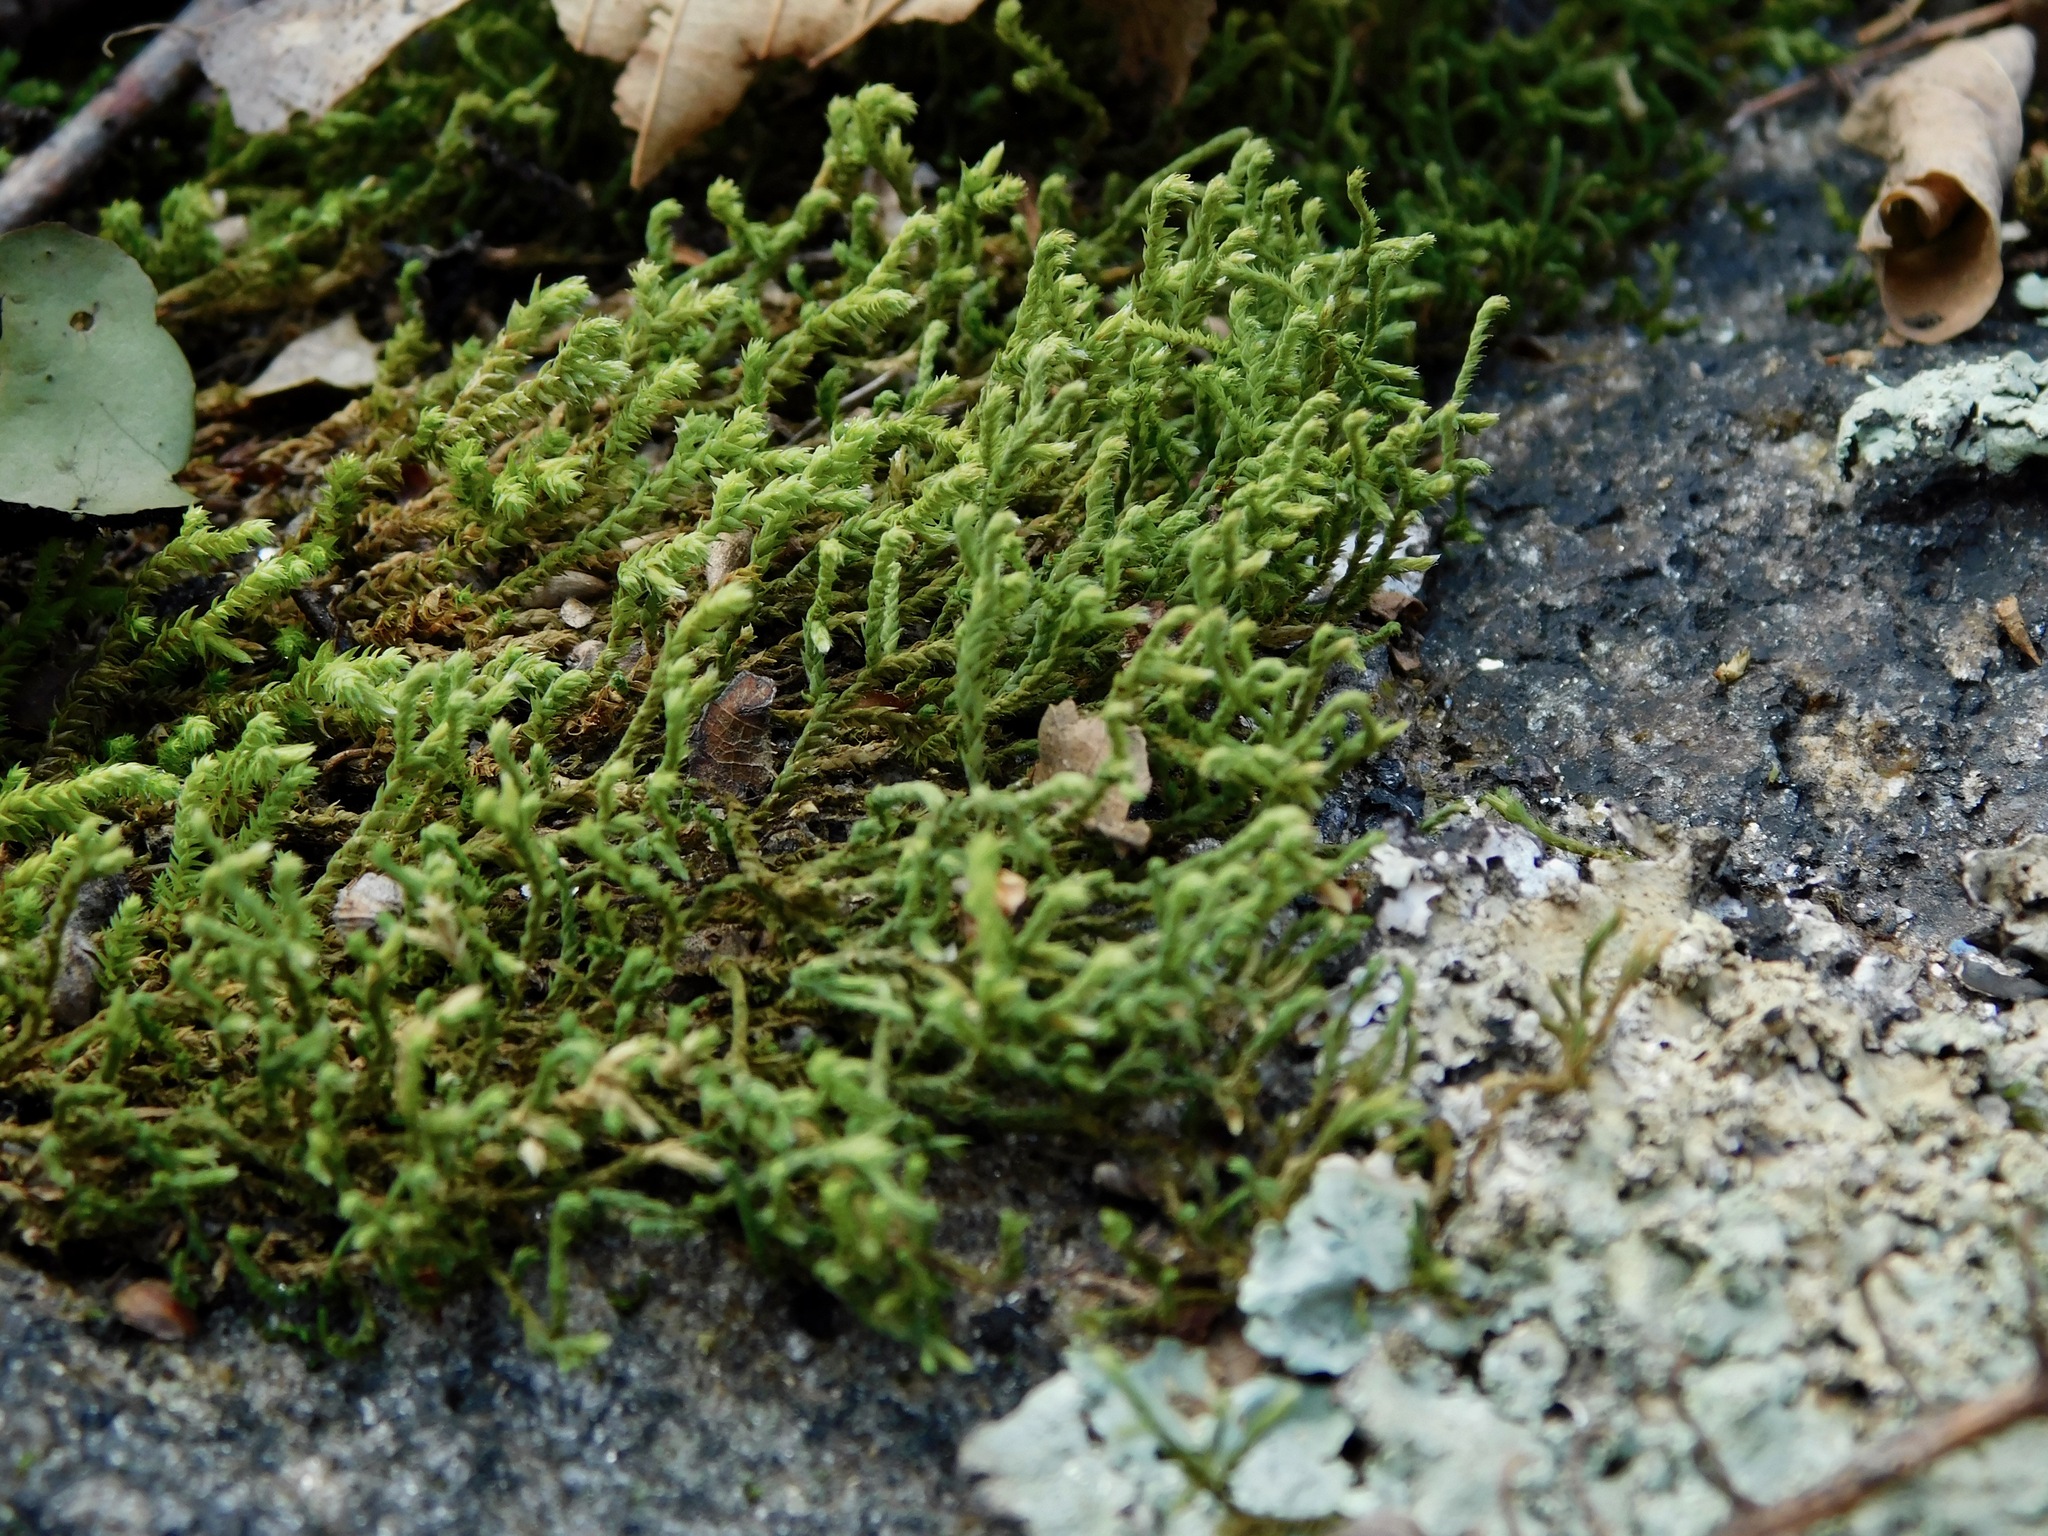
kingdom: Plantae
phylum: Bryophyta
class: Bryopsida
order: Hedwigiales
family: Hedwigiaceae
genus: Hedwigia
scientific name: Hedwigia ciliata
